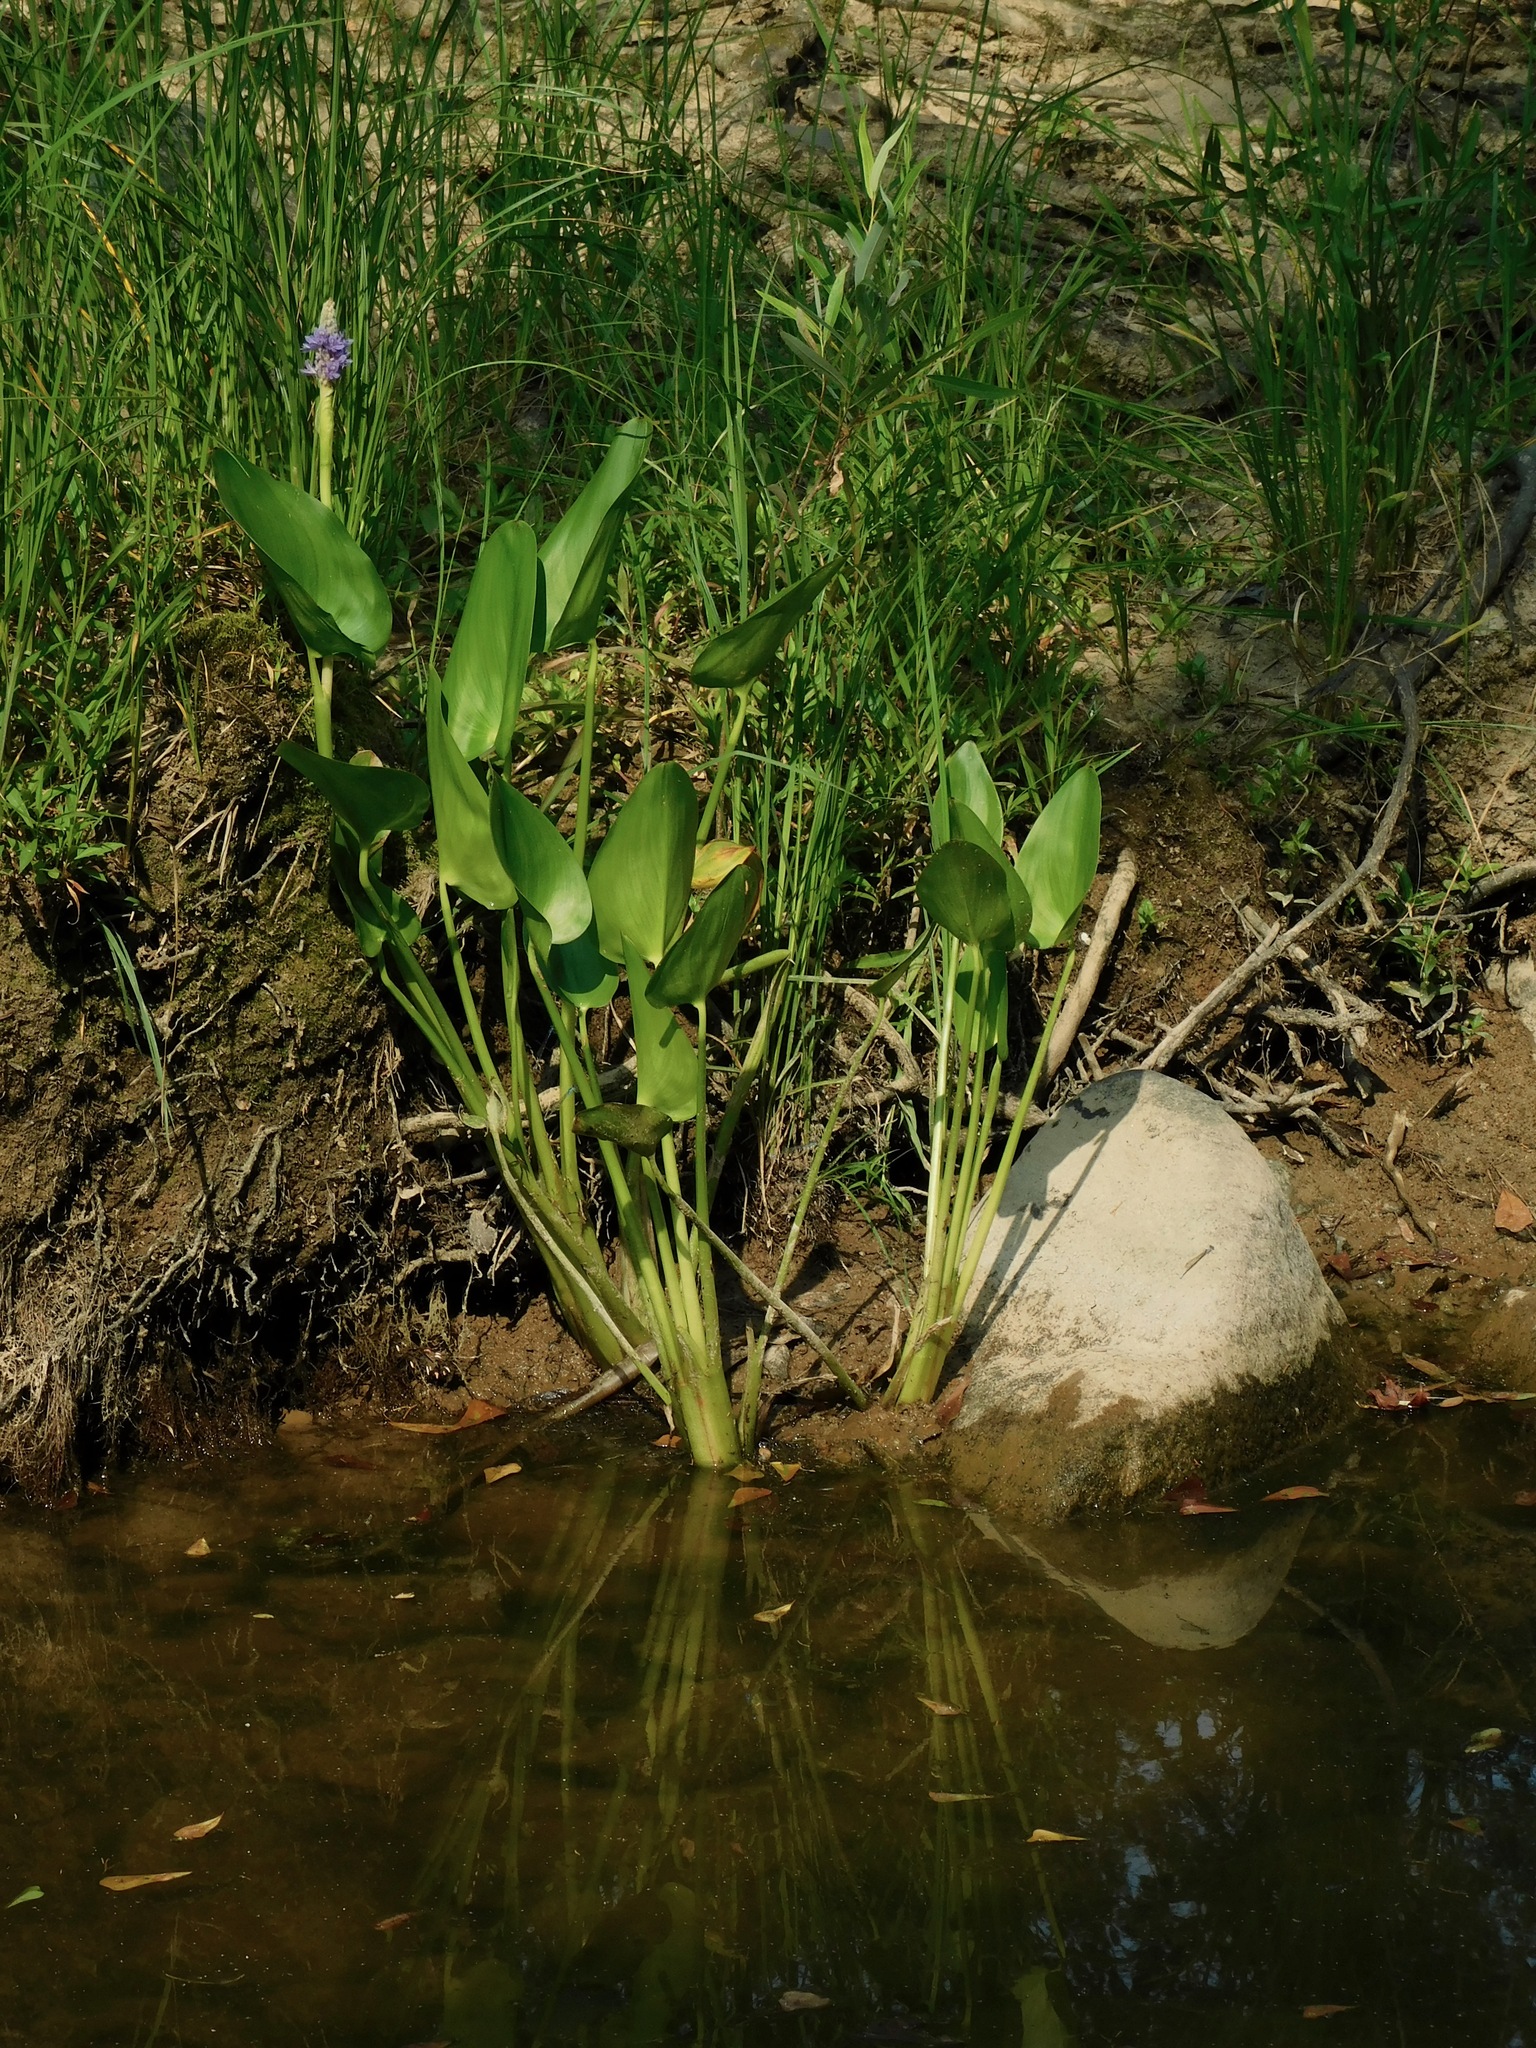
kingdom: Plantae
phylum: Tracheophyta
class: Liliopsida
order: Commelinales
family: Pontederiaceae
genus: Pontederia
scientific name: Pontederia cordata
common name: Pickerelweed
